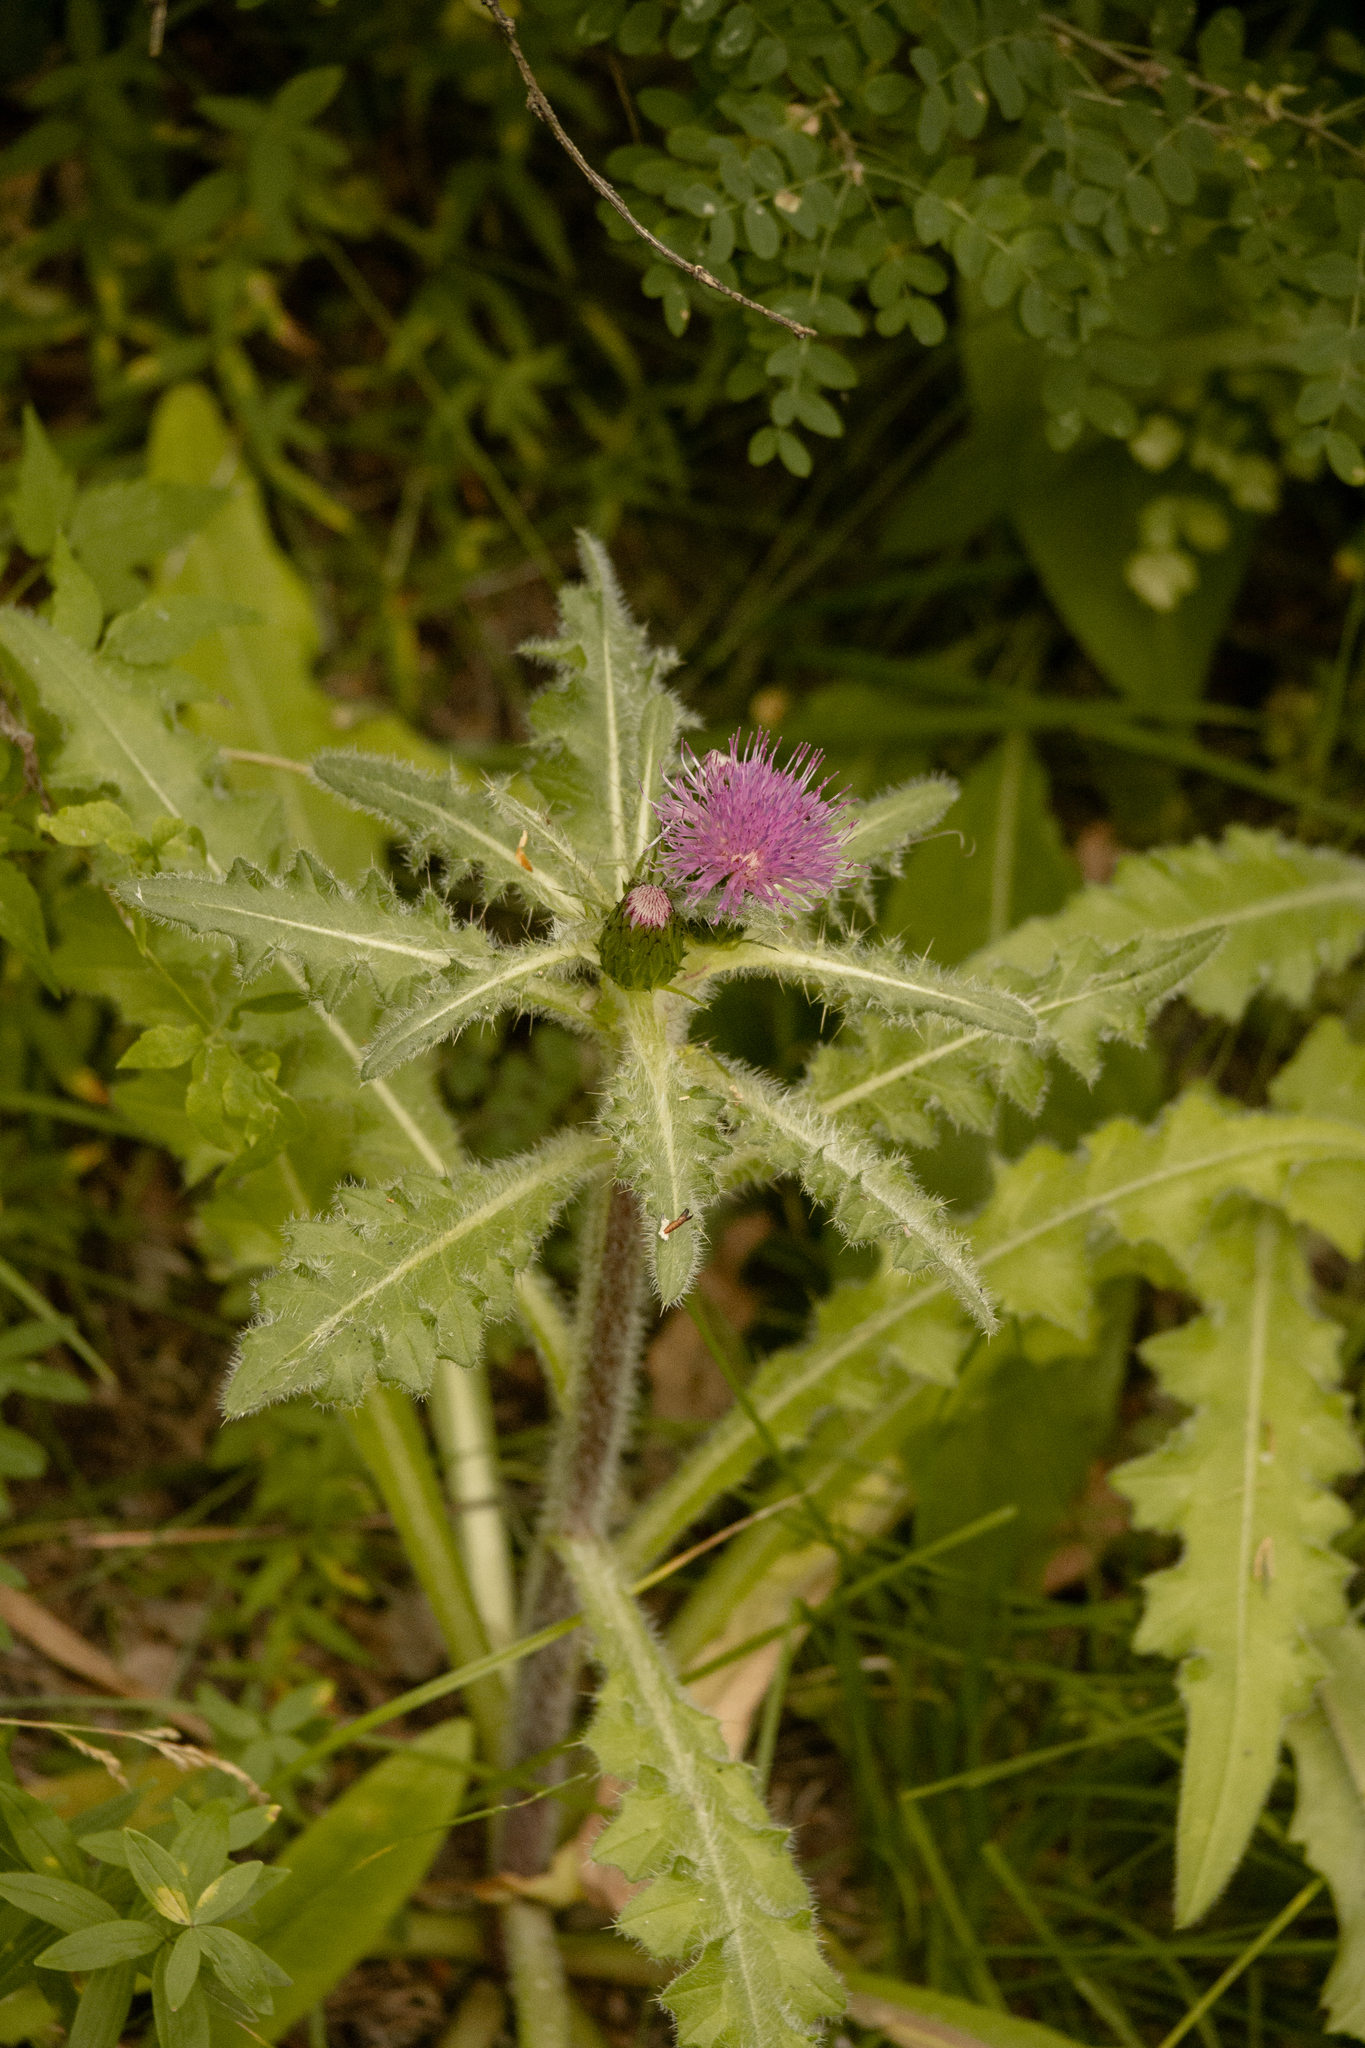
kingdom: Plantae
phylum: Tracheophyta
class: Magnoliopsida
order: Asterales
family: Asteraceae
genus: Cirsium
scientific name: Cirsium esculentum
